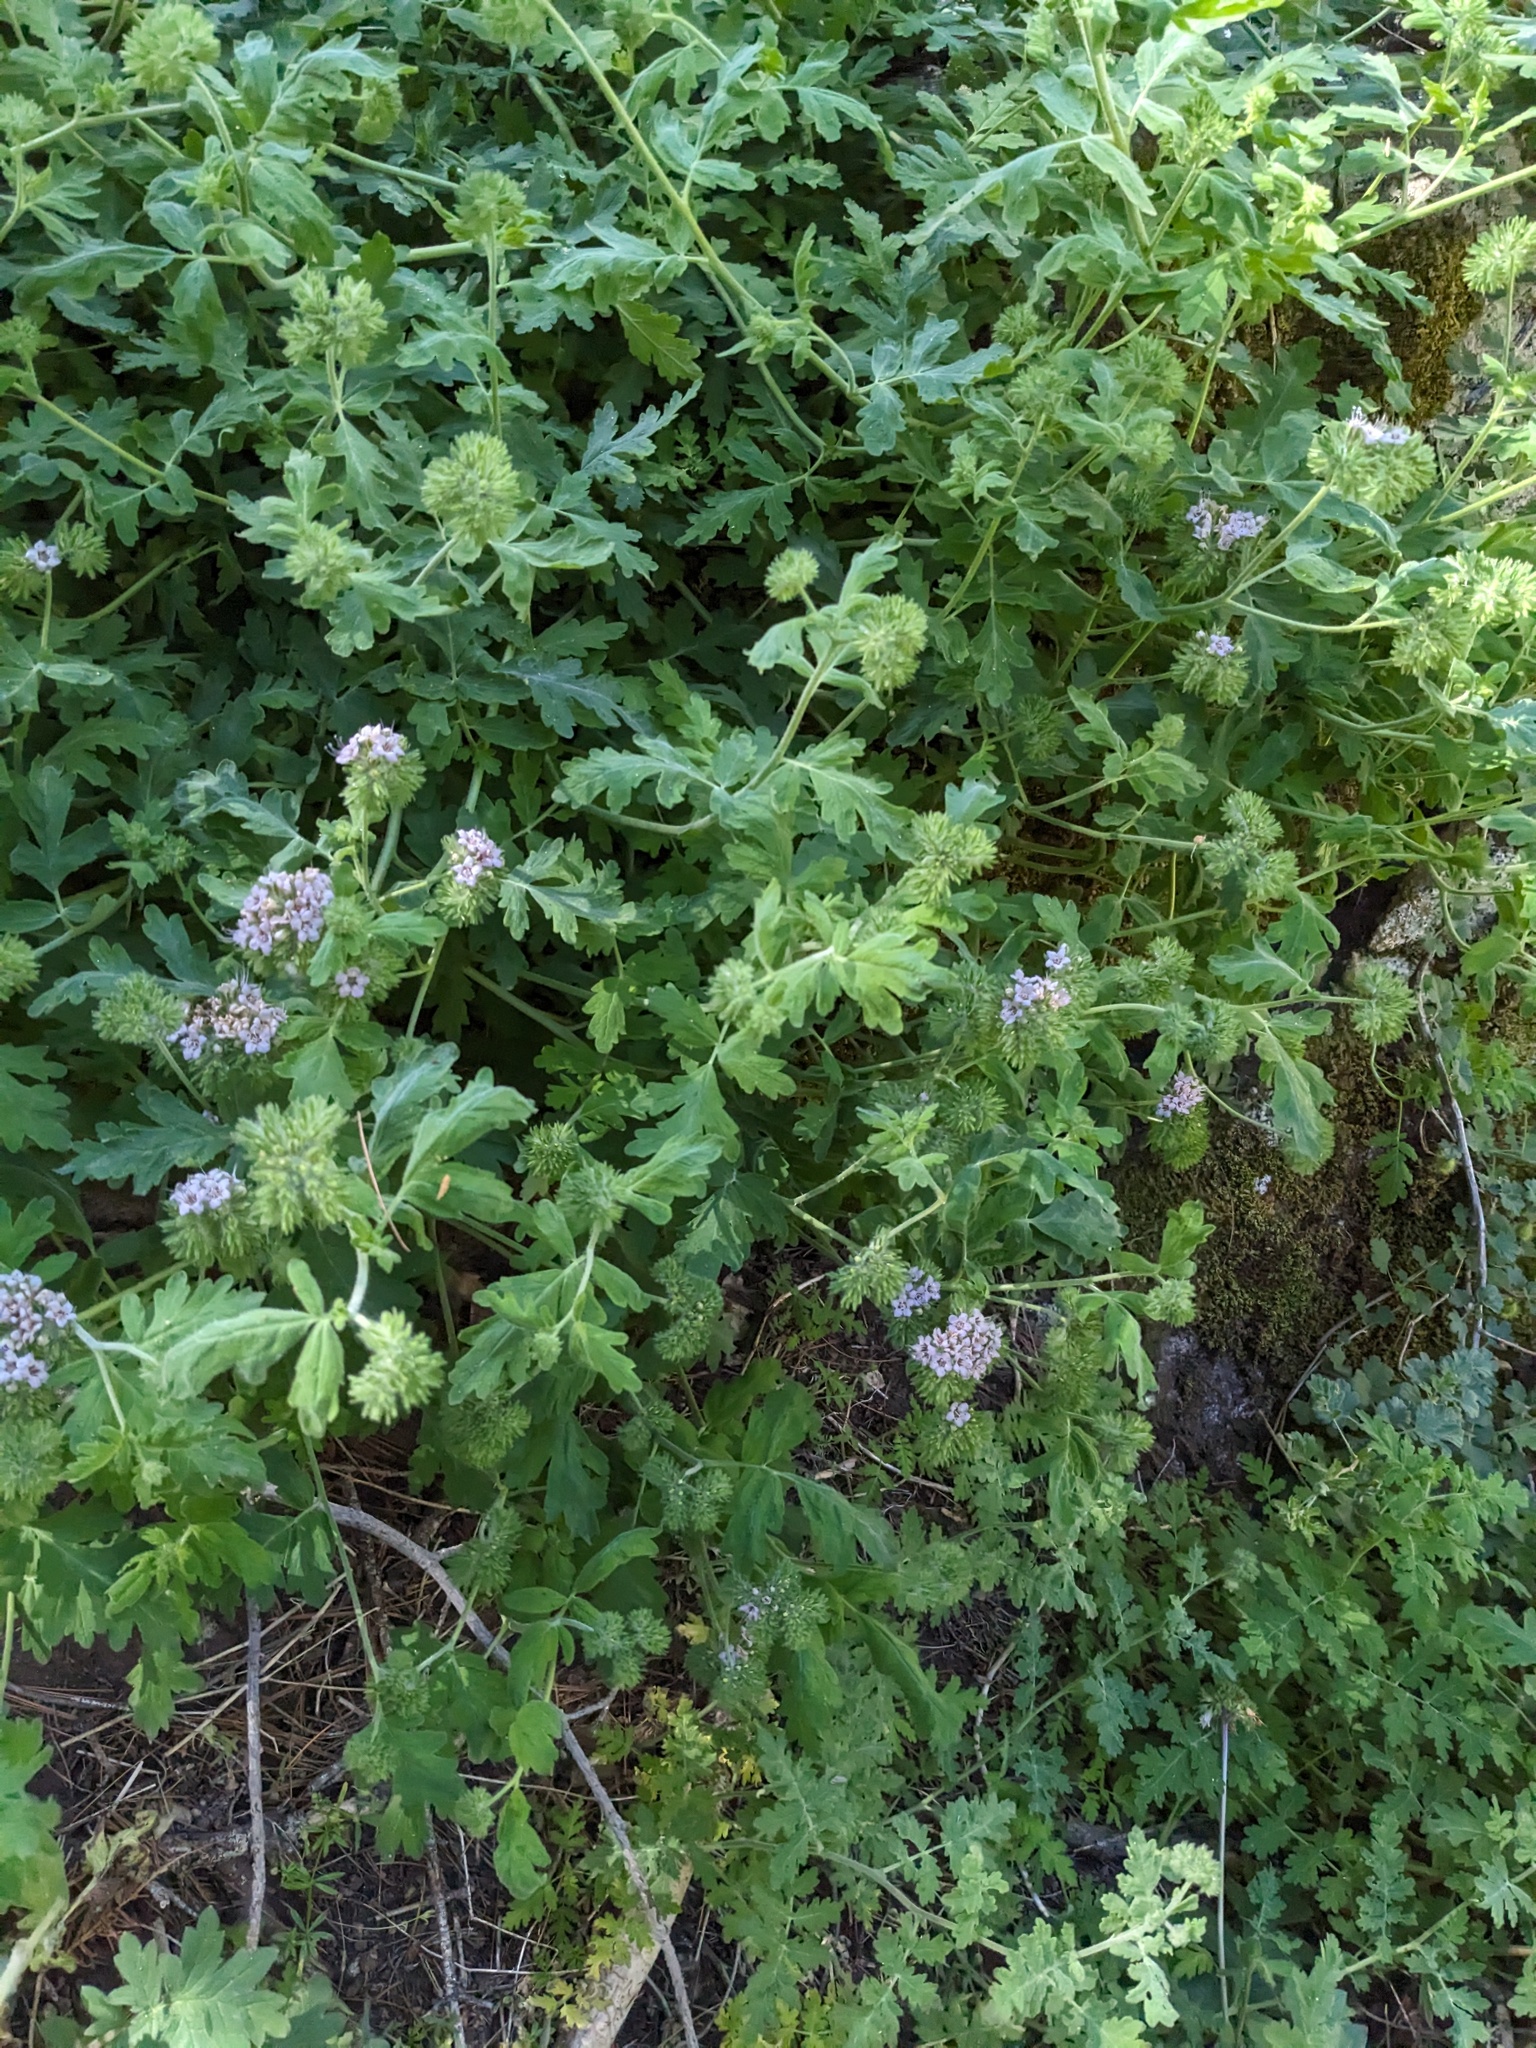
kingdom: Plantae
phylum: Tracheophyta
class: Magnoliopsida
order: Boraginales
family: Hydrophyllaceae
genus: Phacelia
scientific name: Phacelia ramosissima
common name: Branching phacelia
